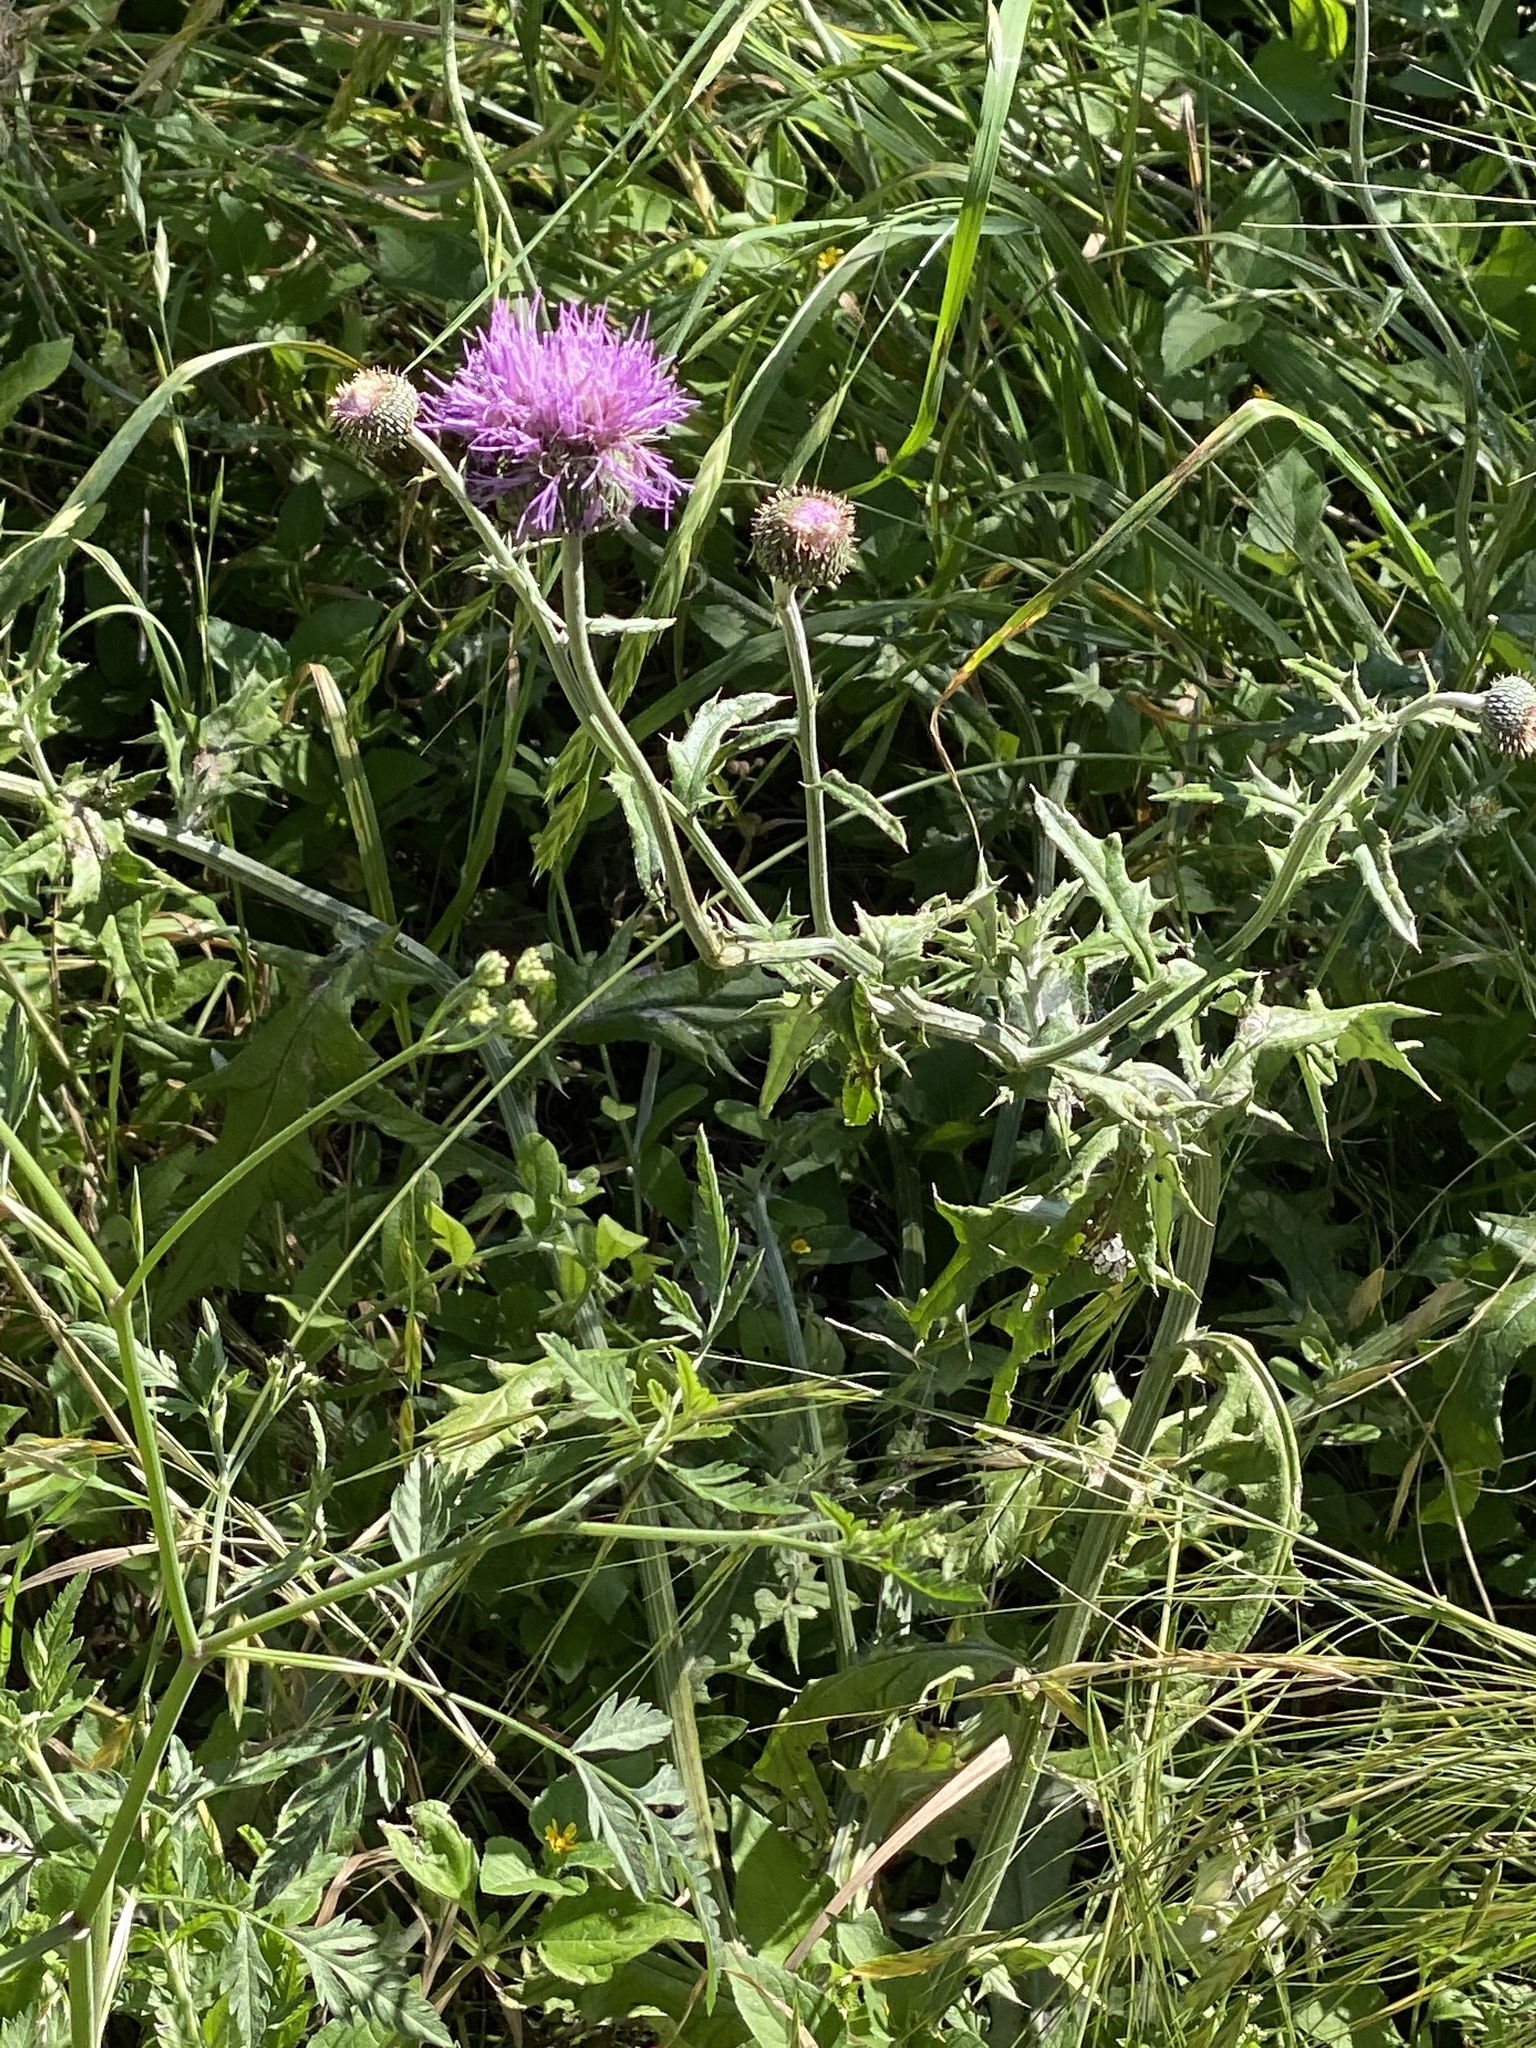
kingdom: Plantae
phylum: Tracheophyta
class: Magnoliopsida
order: Asterales
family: Asteraceae
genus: Cirsium
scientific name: Cirsium texanum
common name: Texas purple thistle
